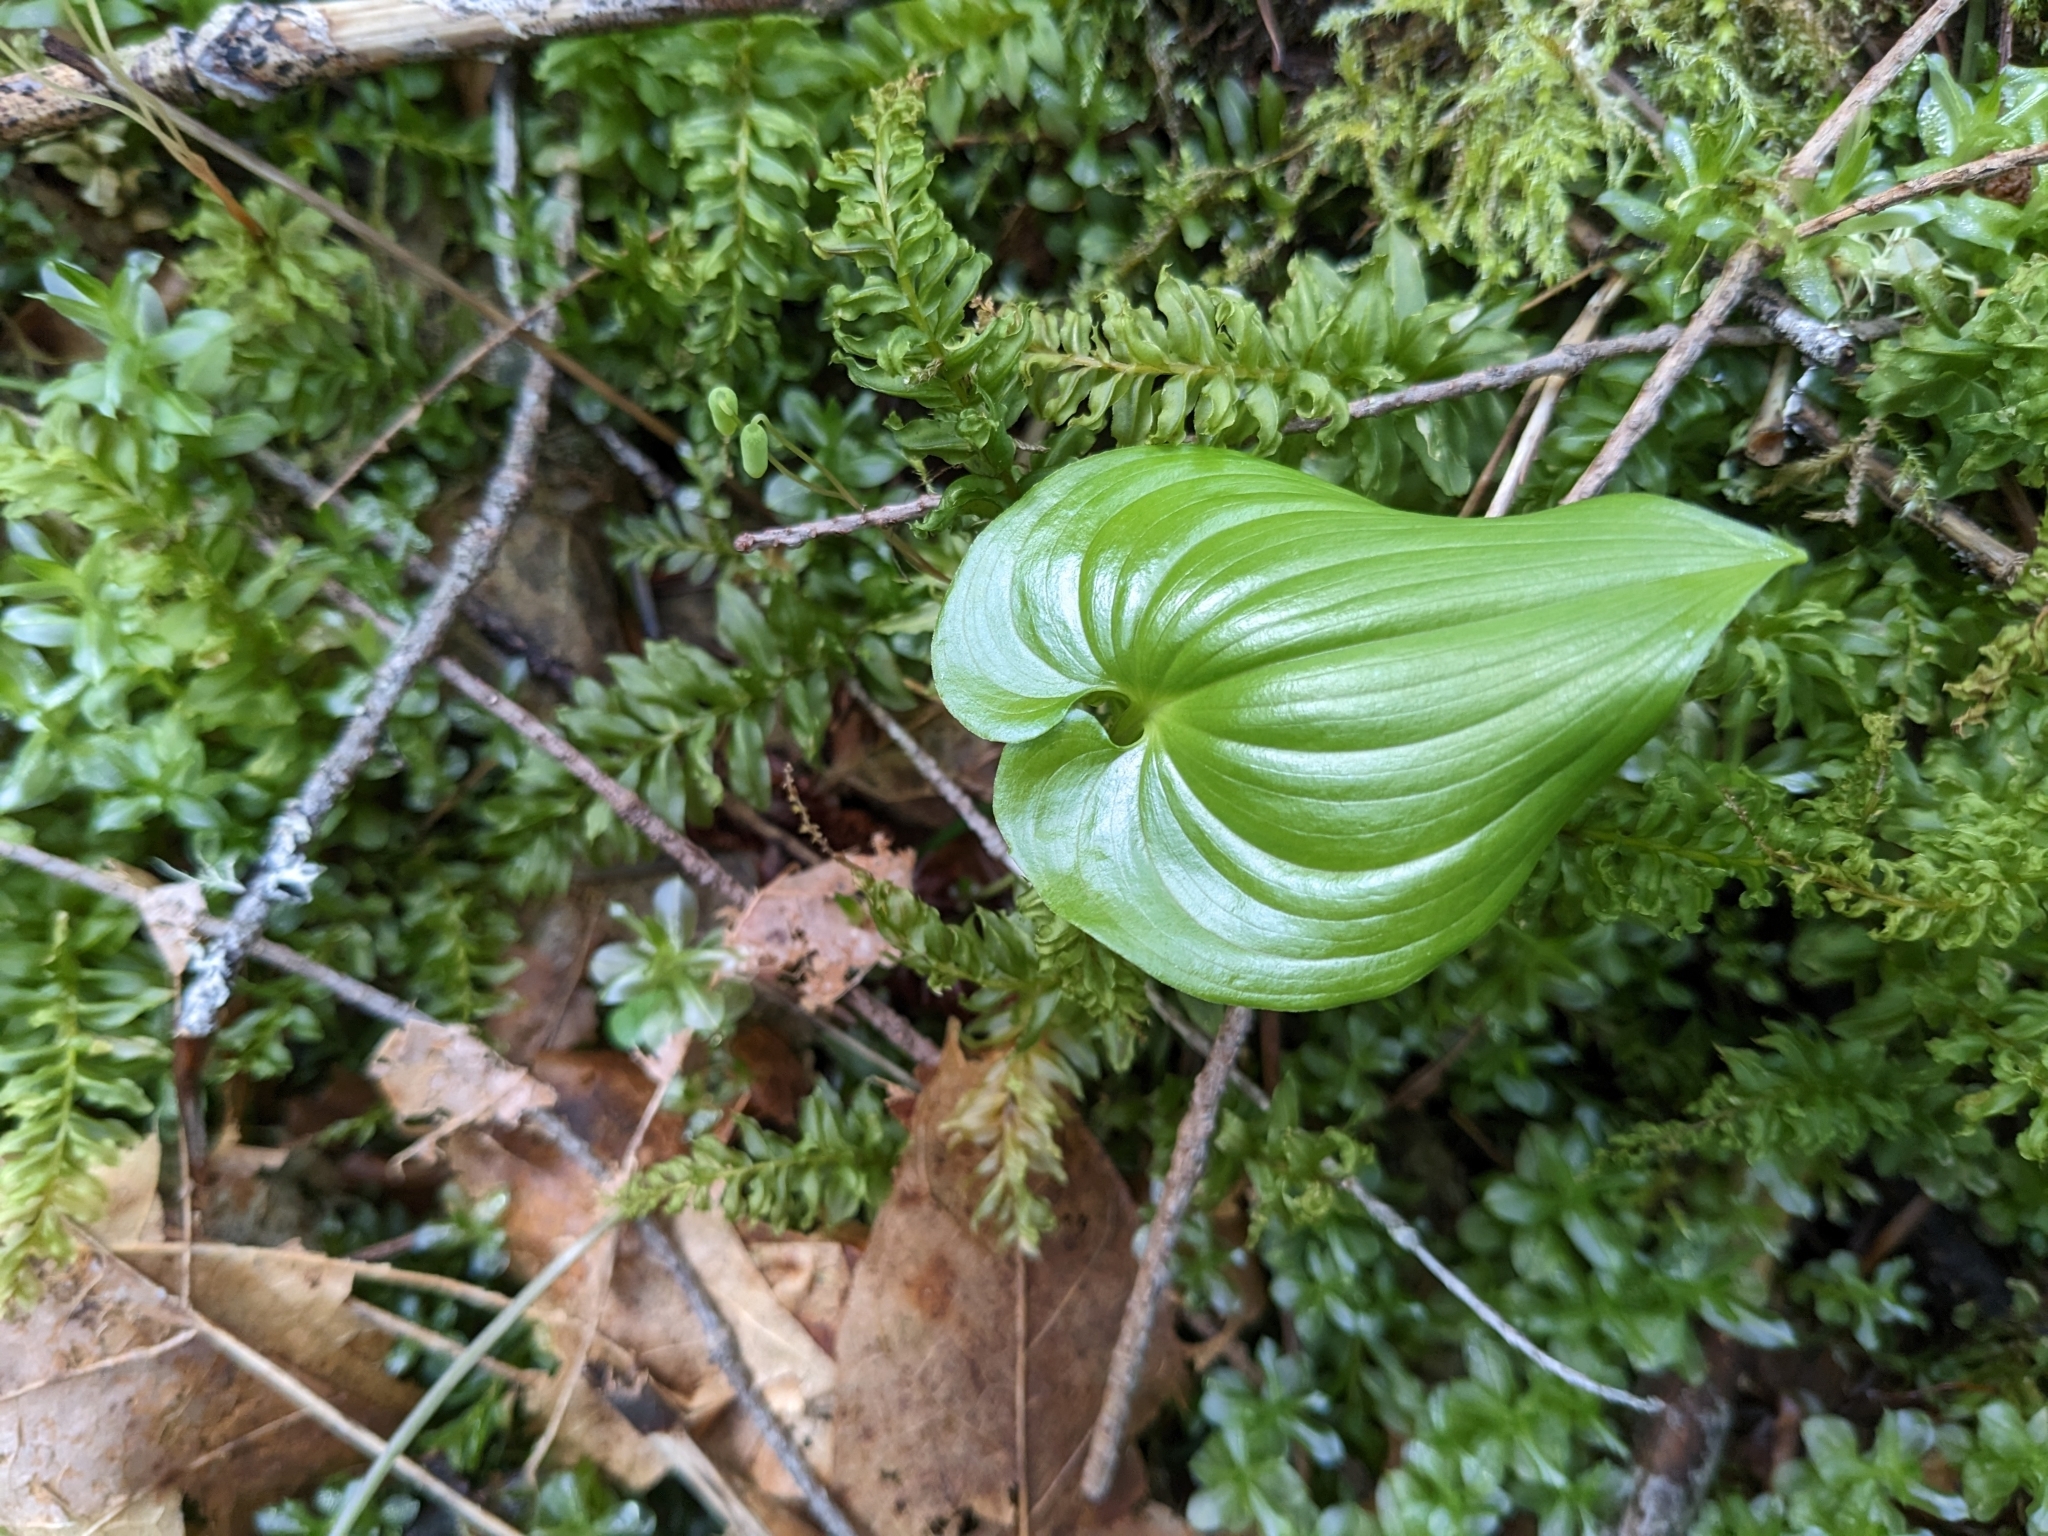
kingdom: Plantae
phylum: Tracheophyta
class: Liliopsida
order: Asparagales
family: Asparagaceae
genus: Maianthemum
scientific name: Maianthemum dilatatum
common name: False lily-of-the-valley
